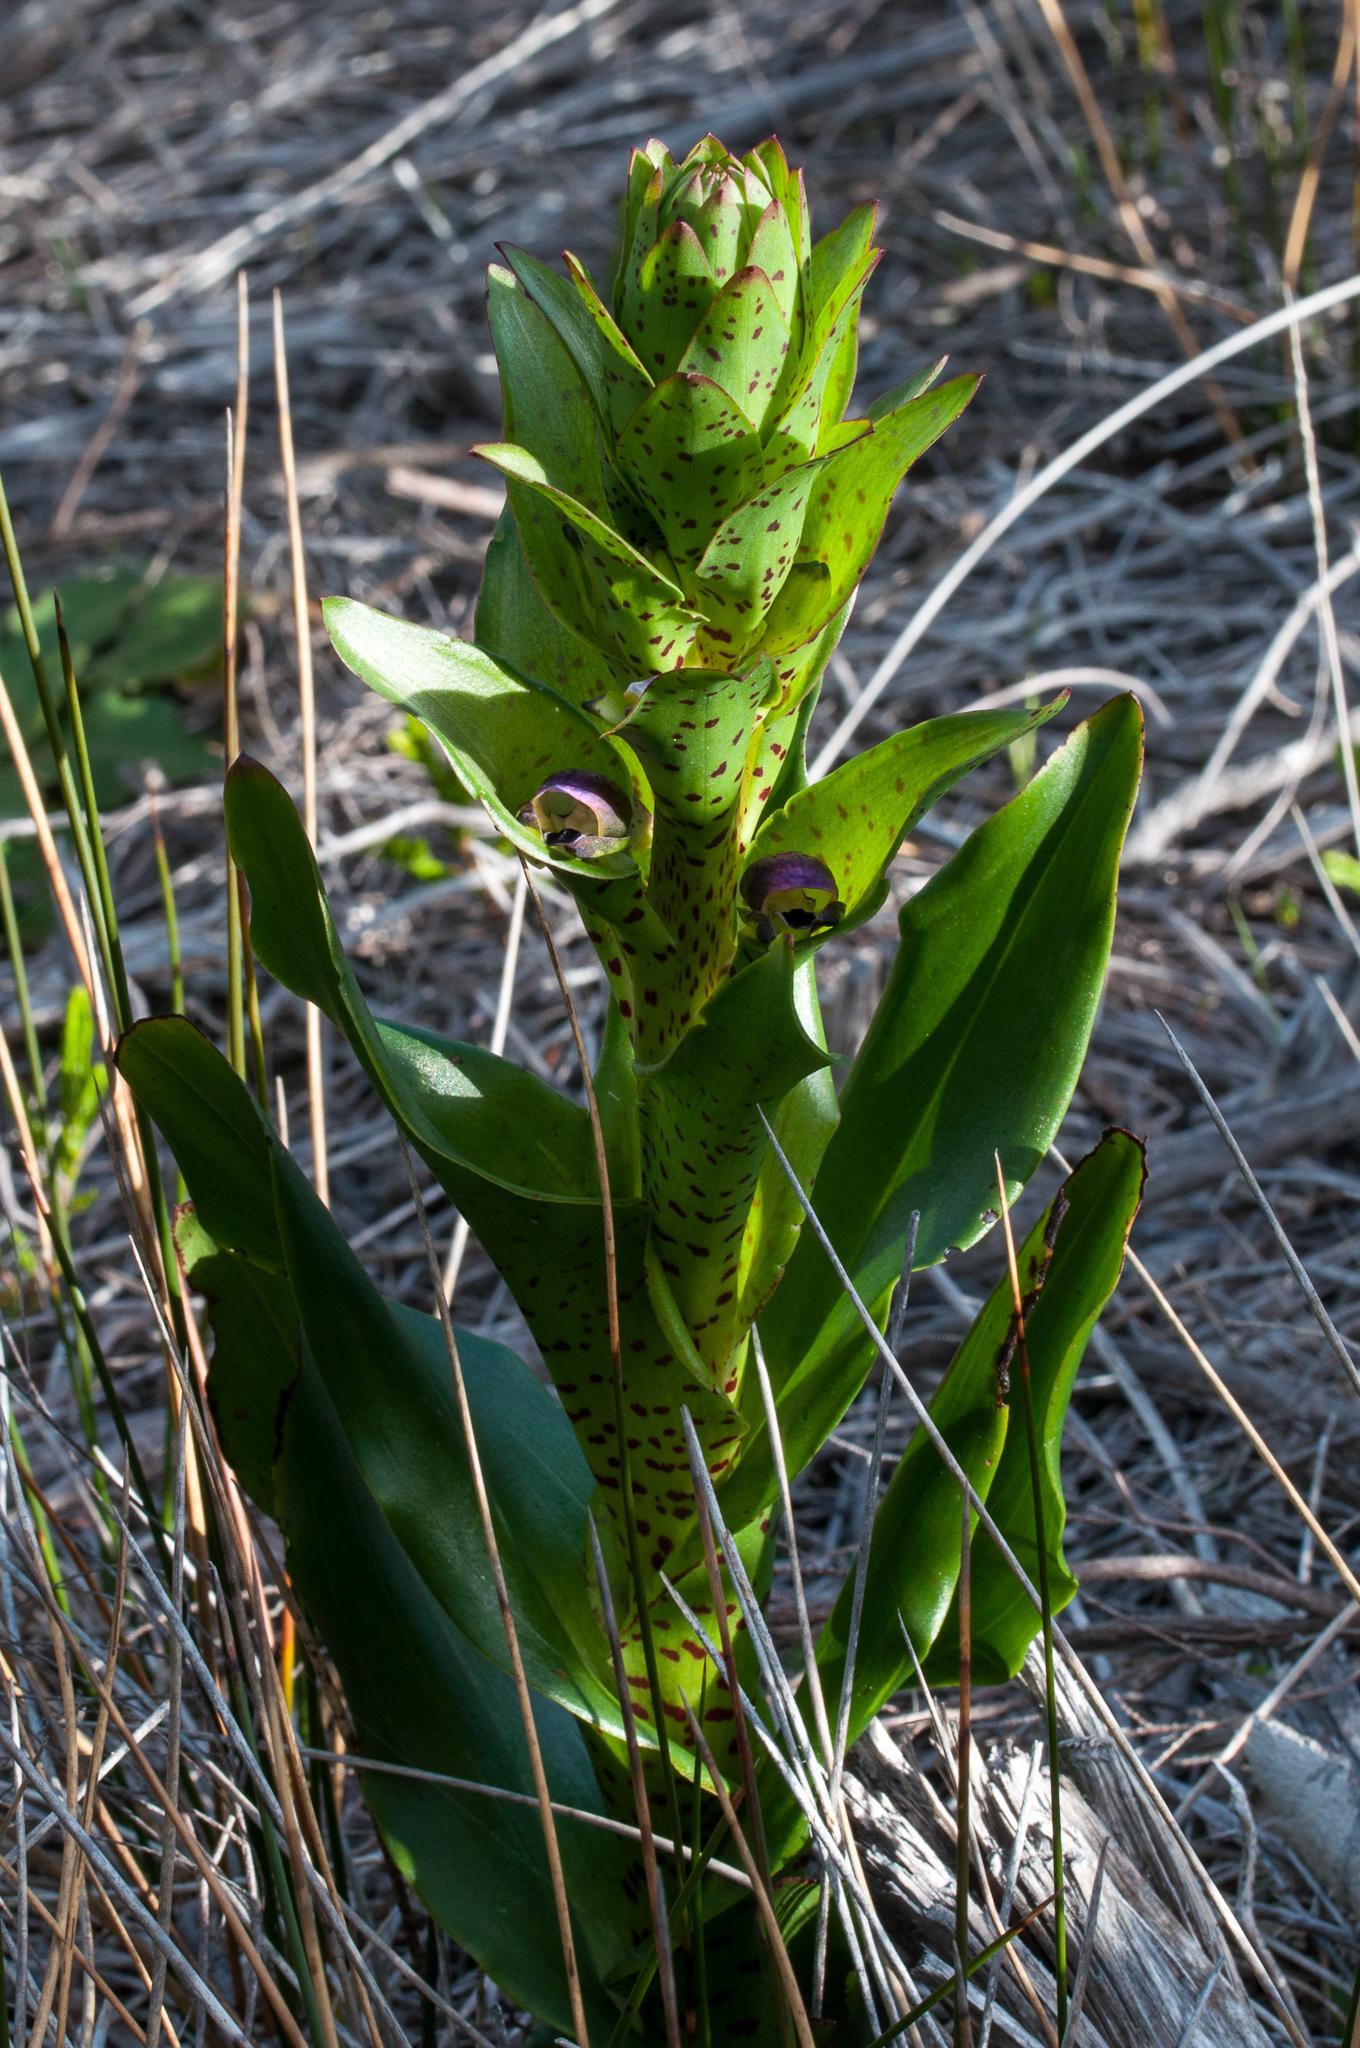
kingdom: Plantae
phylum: Tracheophyta
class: Liliopsida
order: Asparagales
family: Orchidaceae
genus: Disa
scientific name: Disa hallackii
